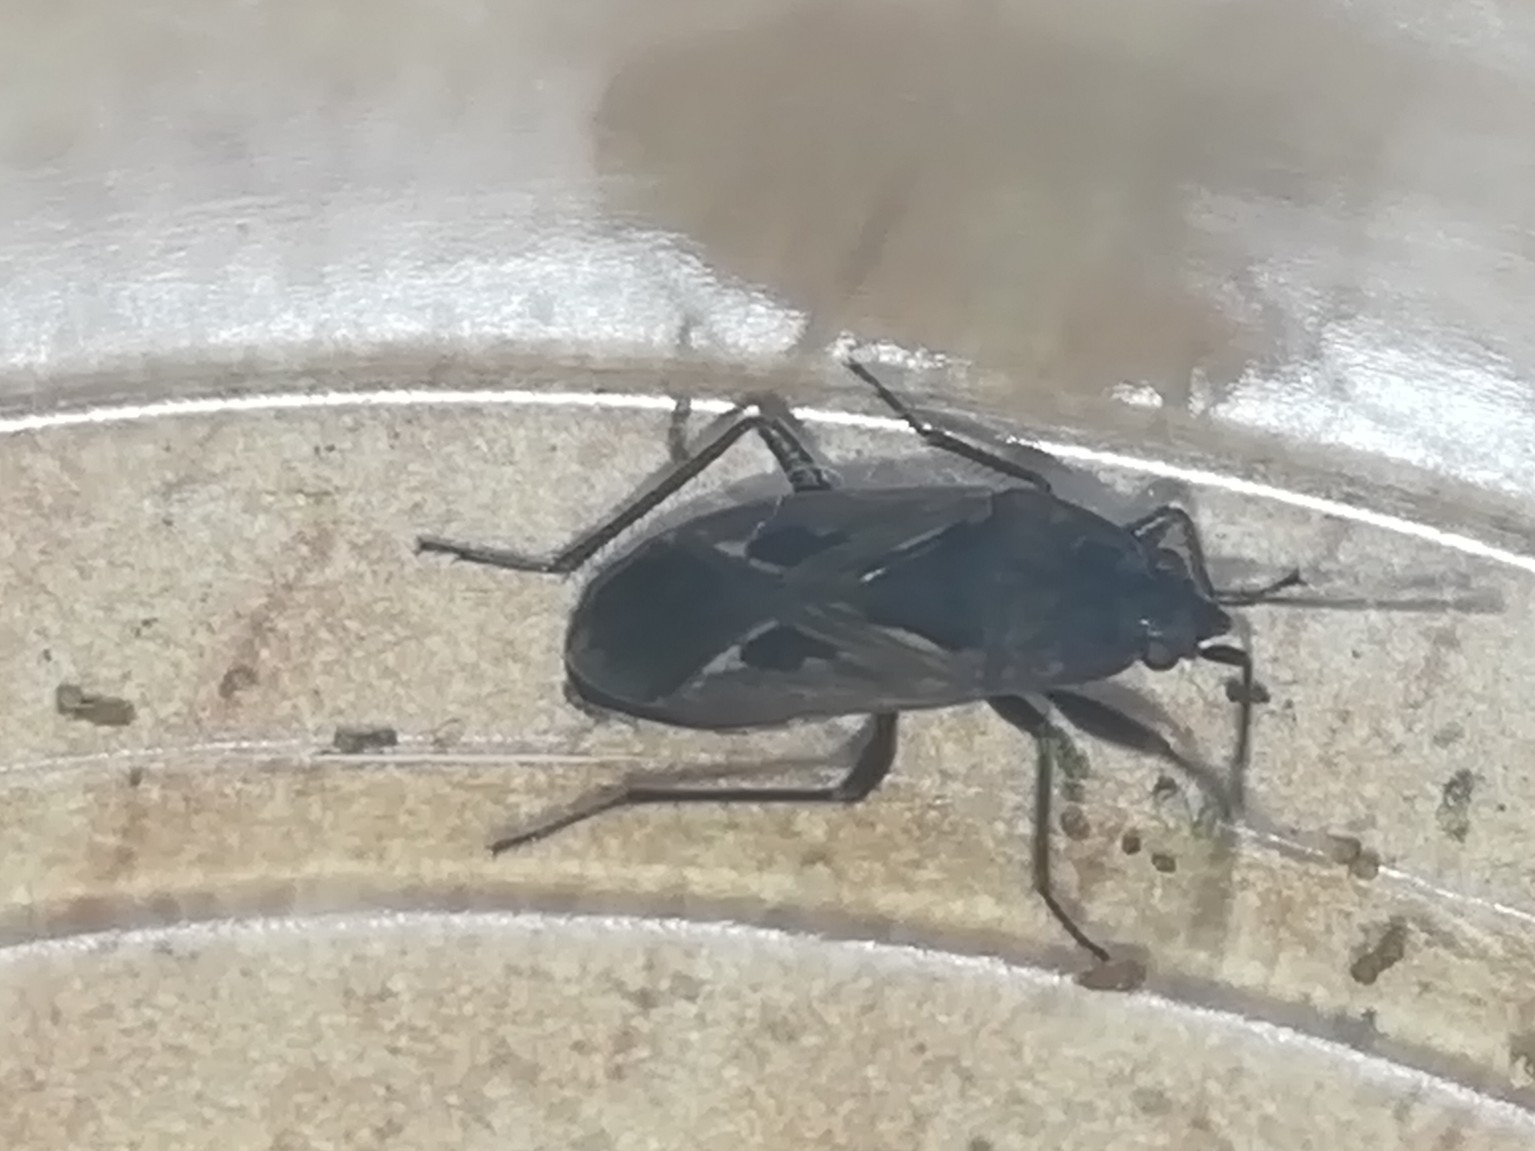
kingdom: Animalia
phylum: Arthropoda
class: Insecta
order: Hemiptera
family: Rhyparochromidae
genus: Rhyparochromus
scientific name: Rhyparochromus vulgaris
